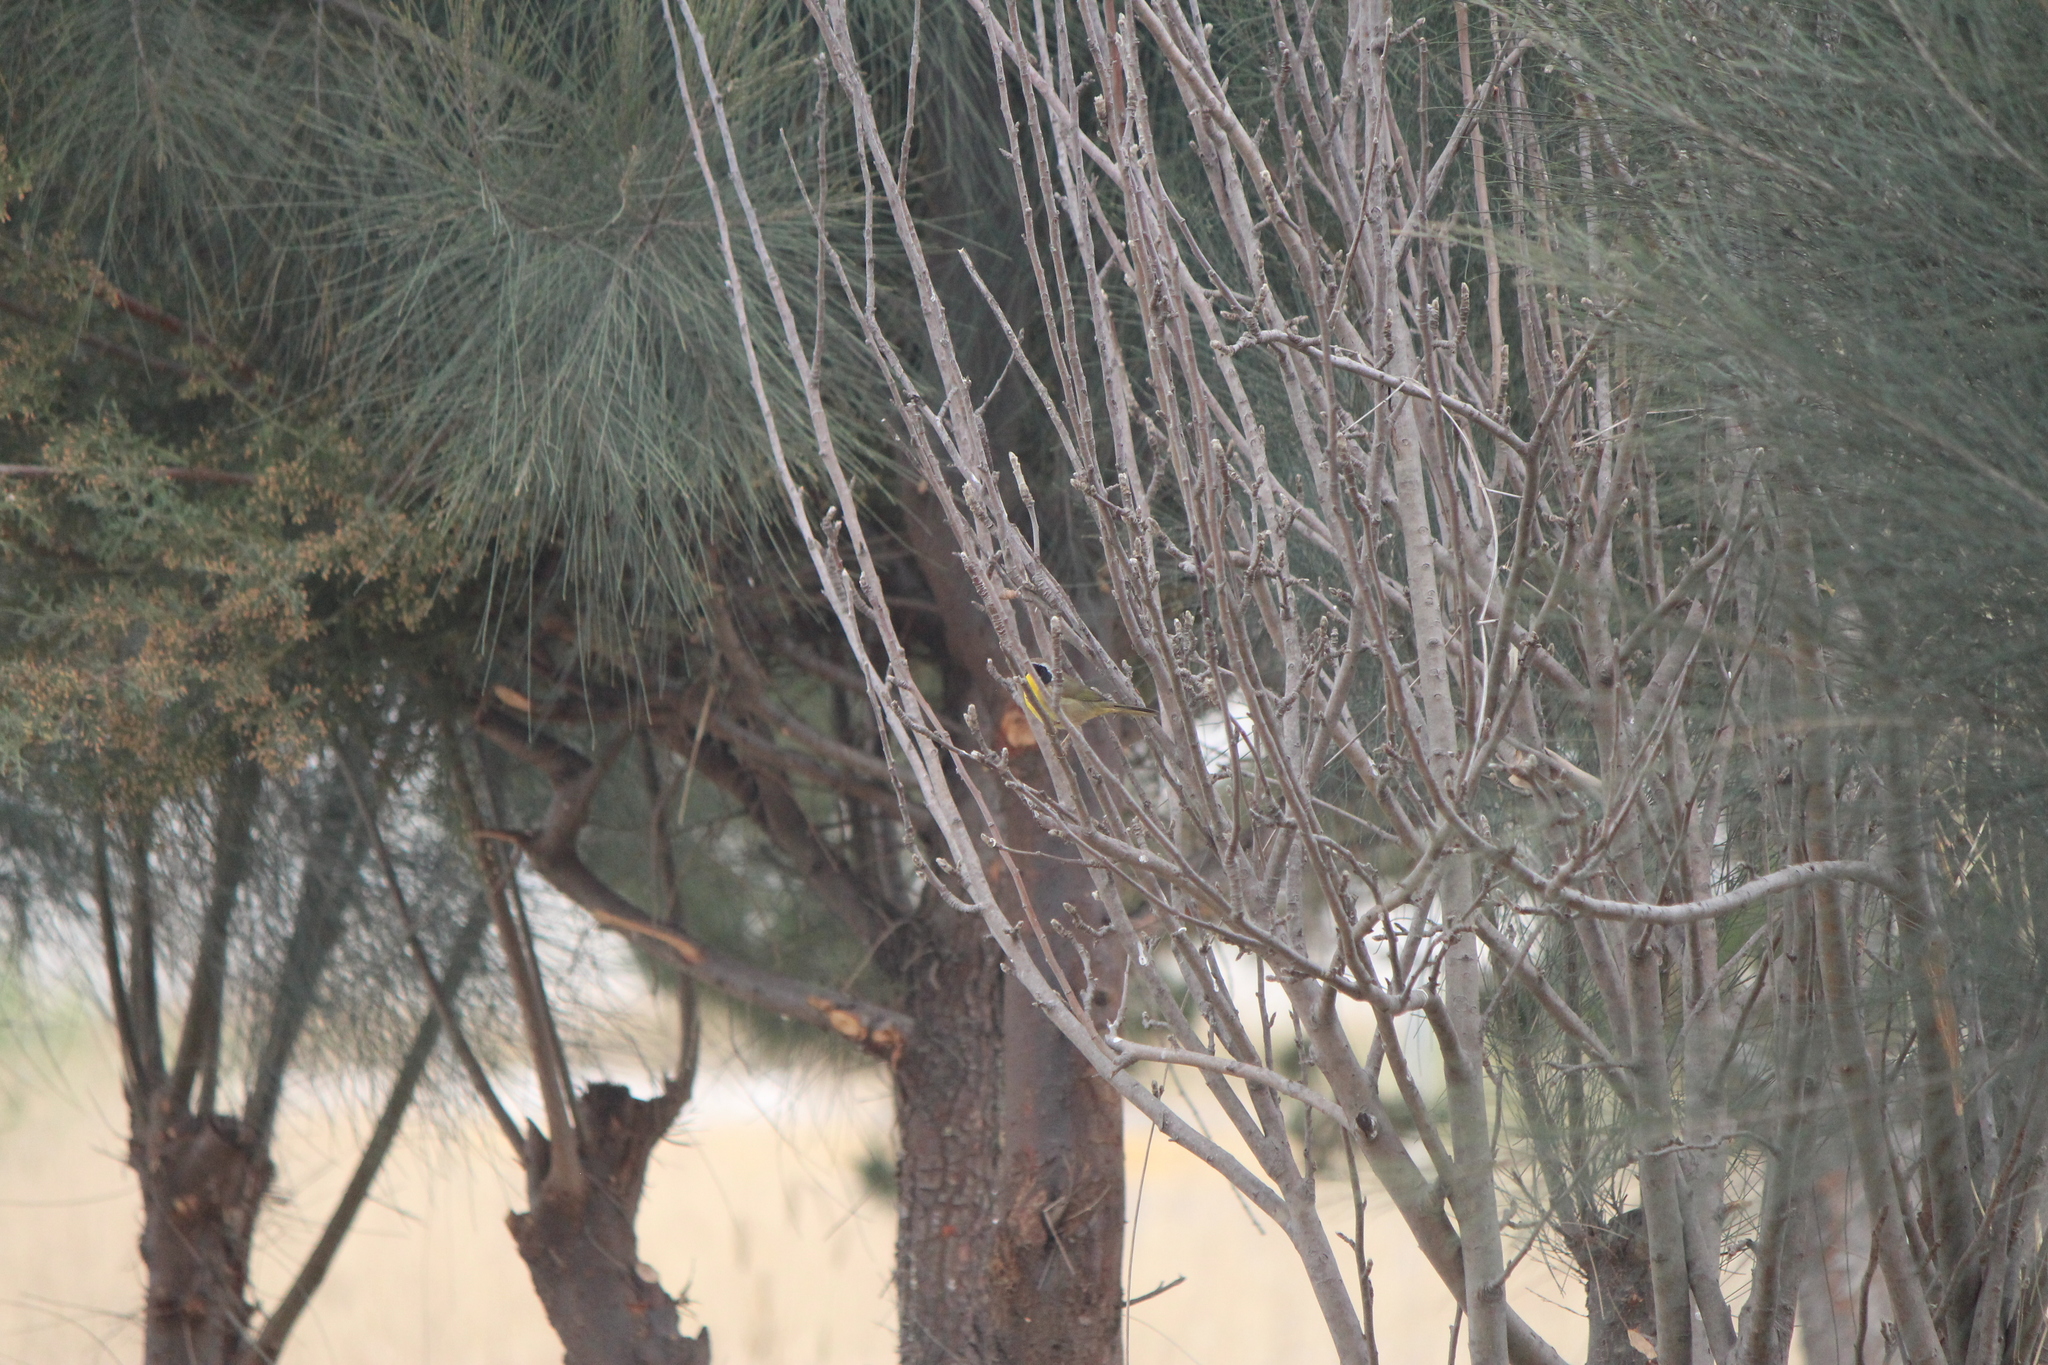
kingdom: Animalia
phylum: Chordata
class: Aves
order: Passeriformes
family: Parulidae
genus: Geothlypis
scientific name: Geothlypis trichas
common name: Common yellowthroat
